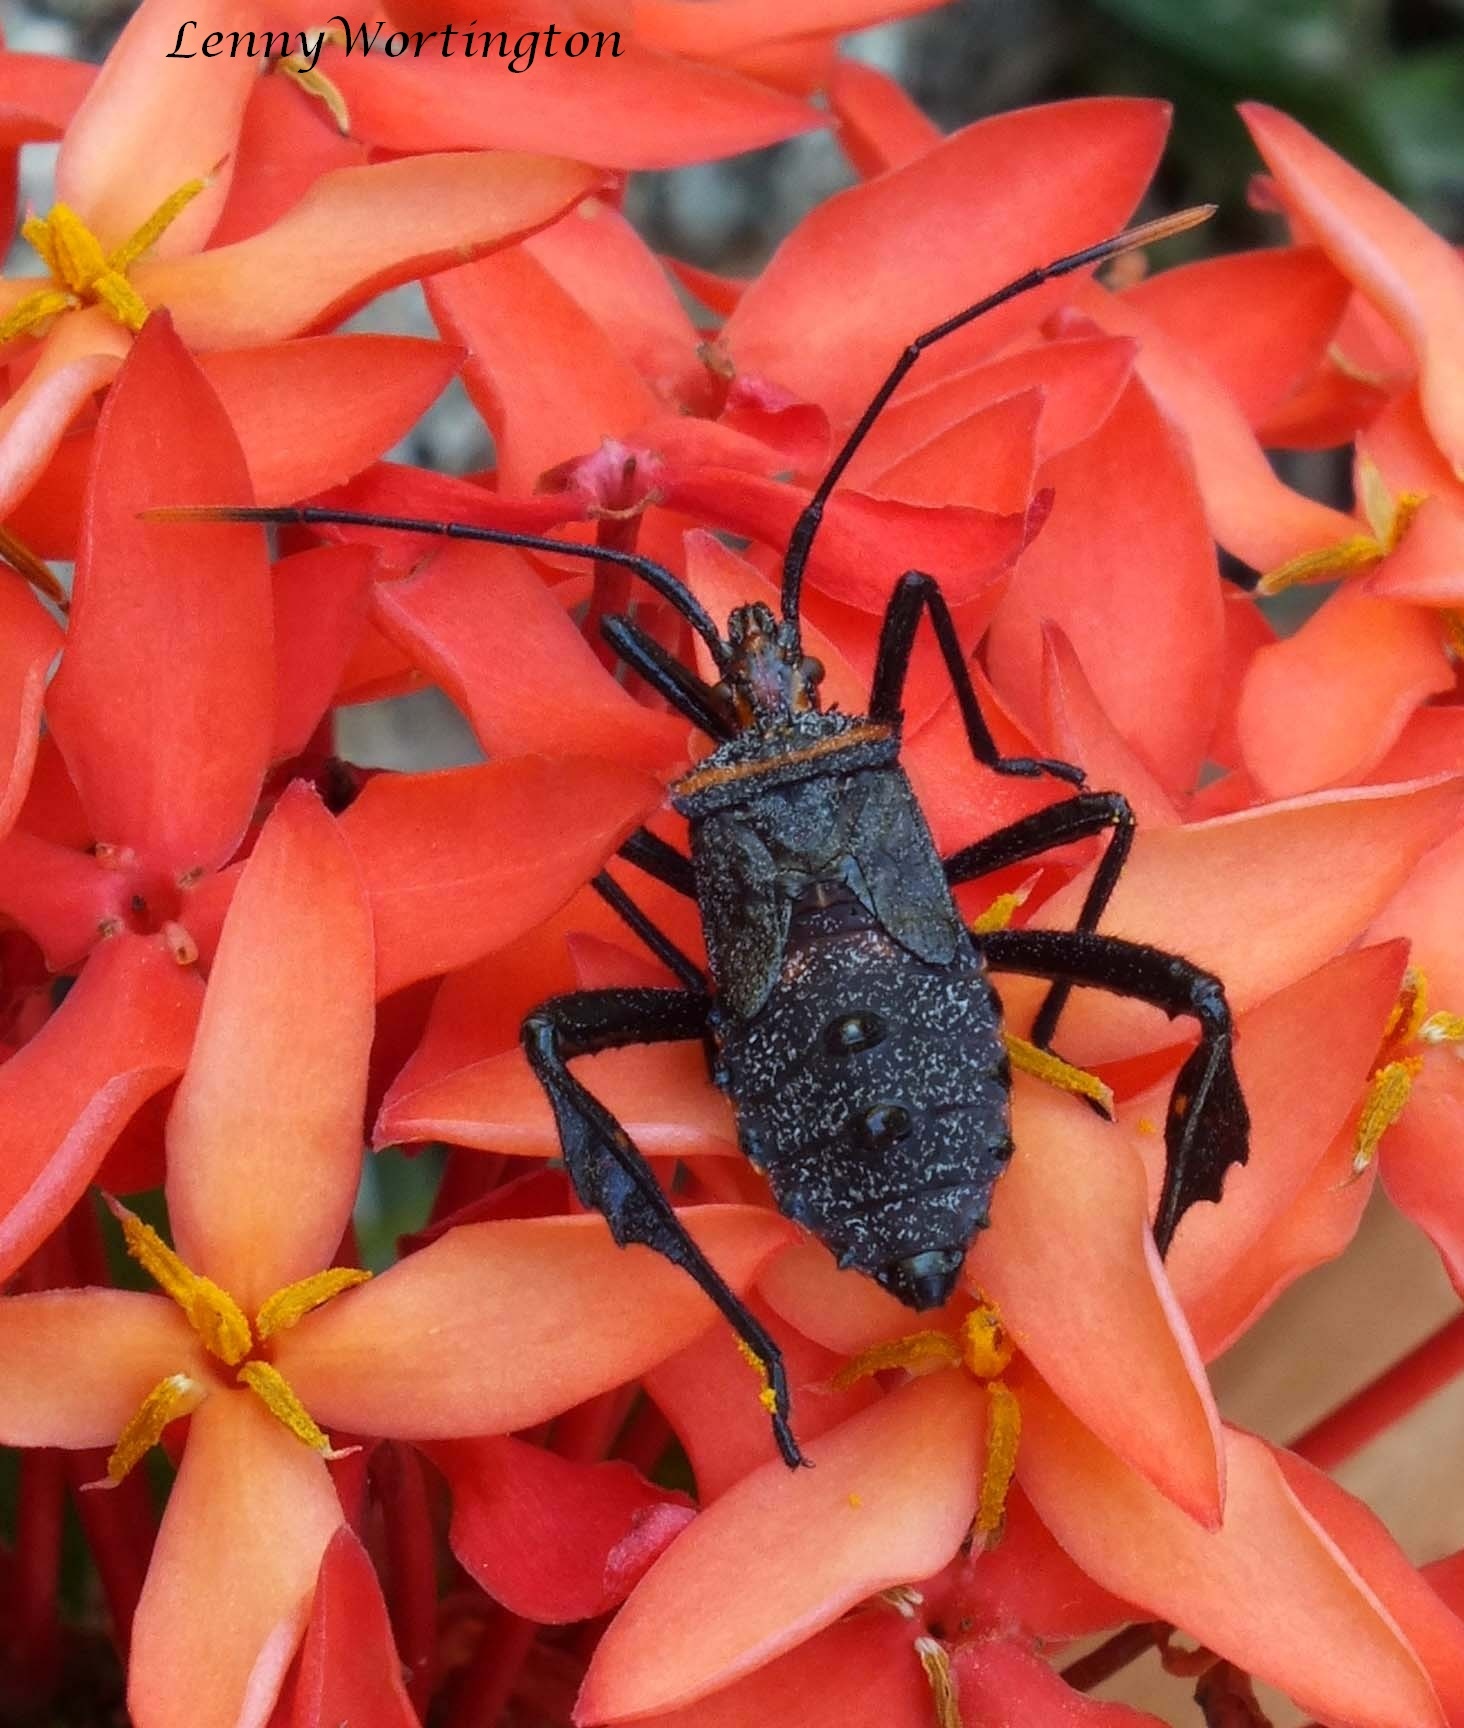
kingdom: Animalia
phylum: Arthropoda
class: Insecta
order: Hemiptera
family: Coreidae
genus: Leptoglossus
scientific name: Leptoglossus gonagra
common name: Citron bug
